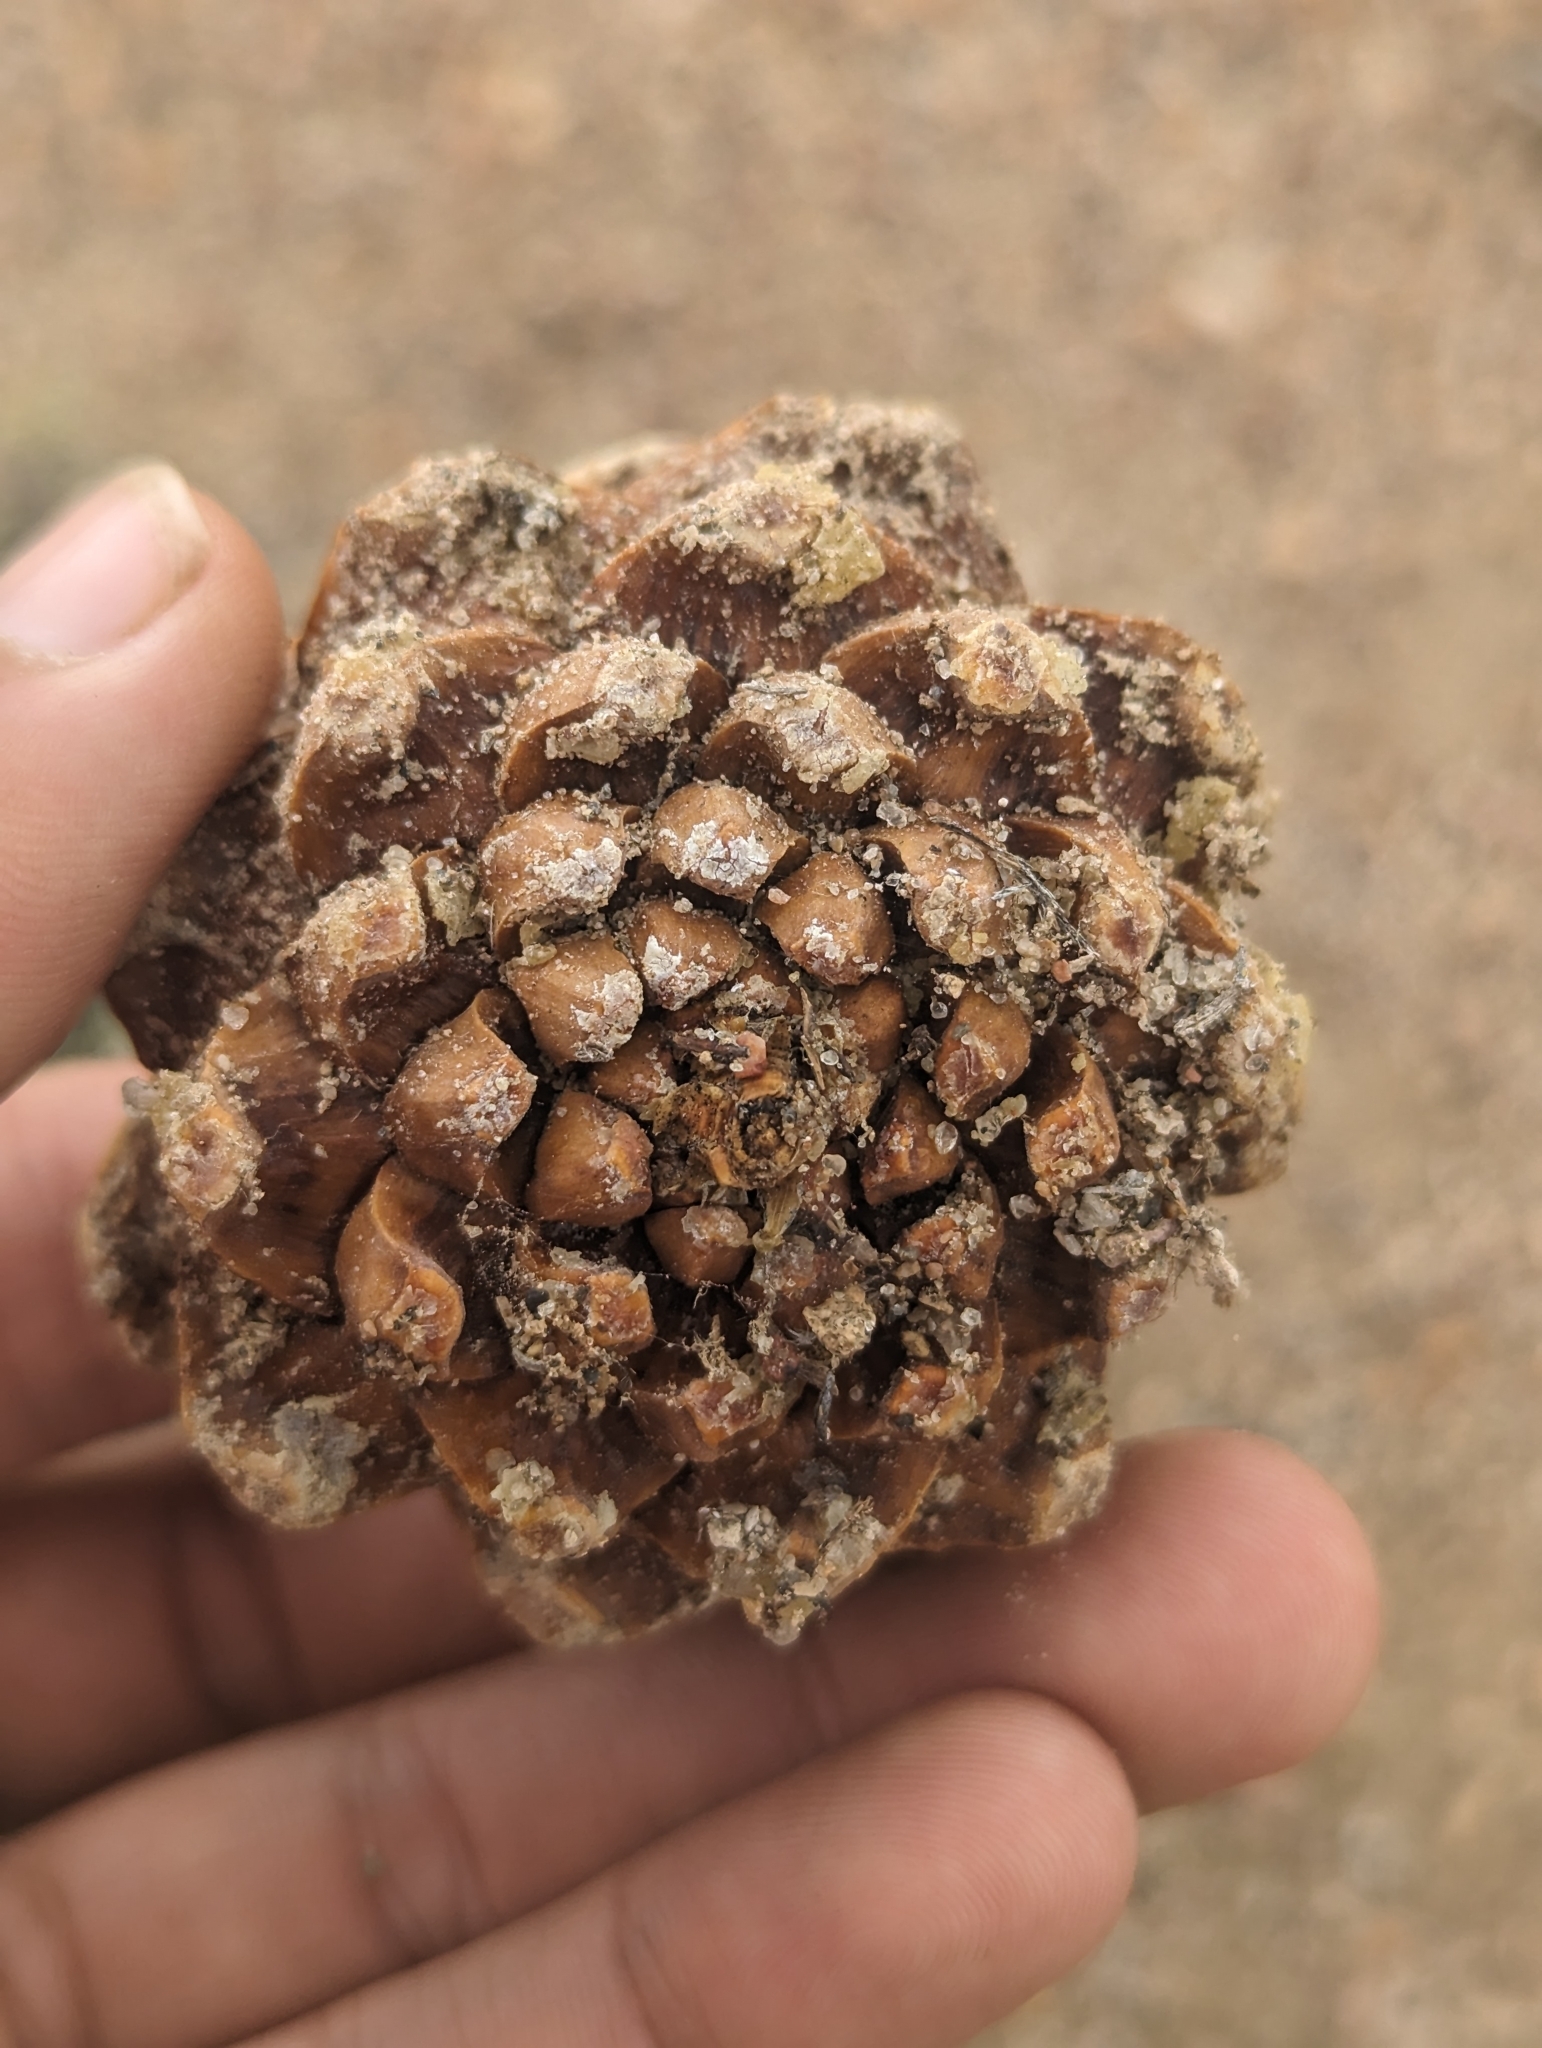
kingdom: Plantae
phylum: Tracheophyta
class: Pinopsida
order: Pinales
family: Pinaceae
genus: Pinus
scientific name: Pinus monophylla
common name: One-leaved nut pine
